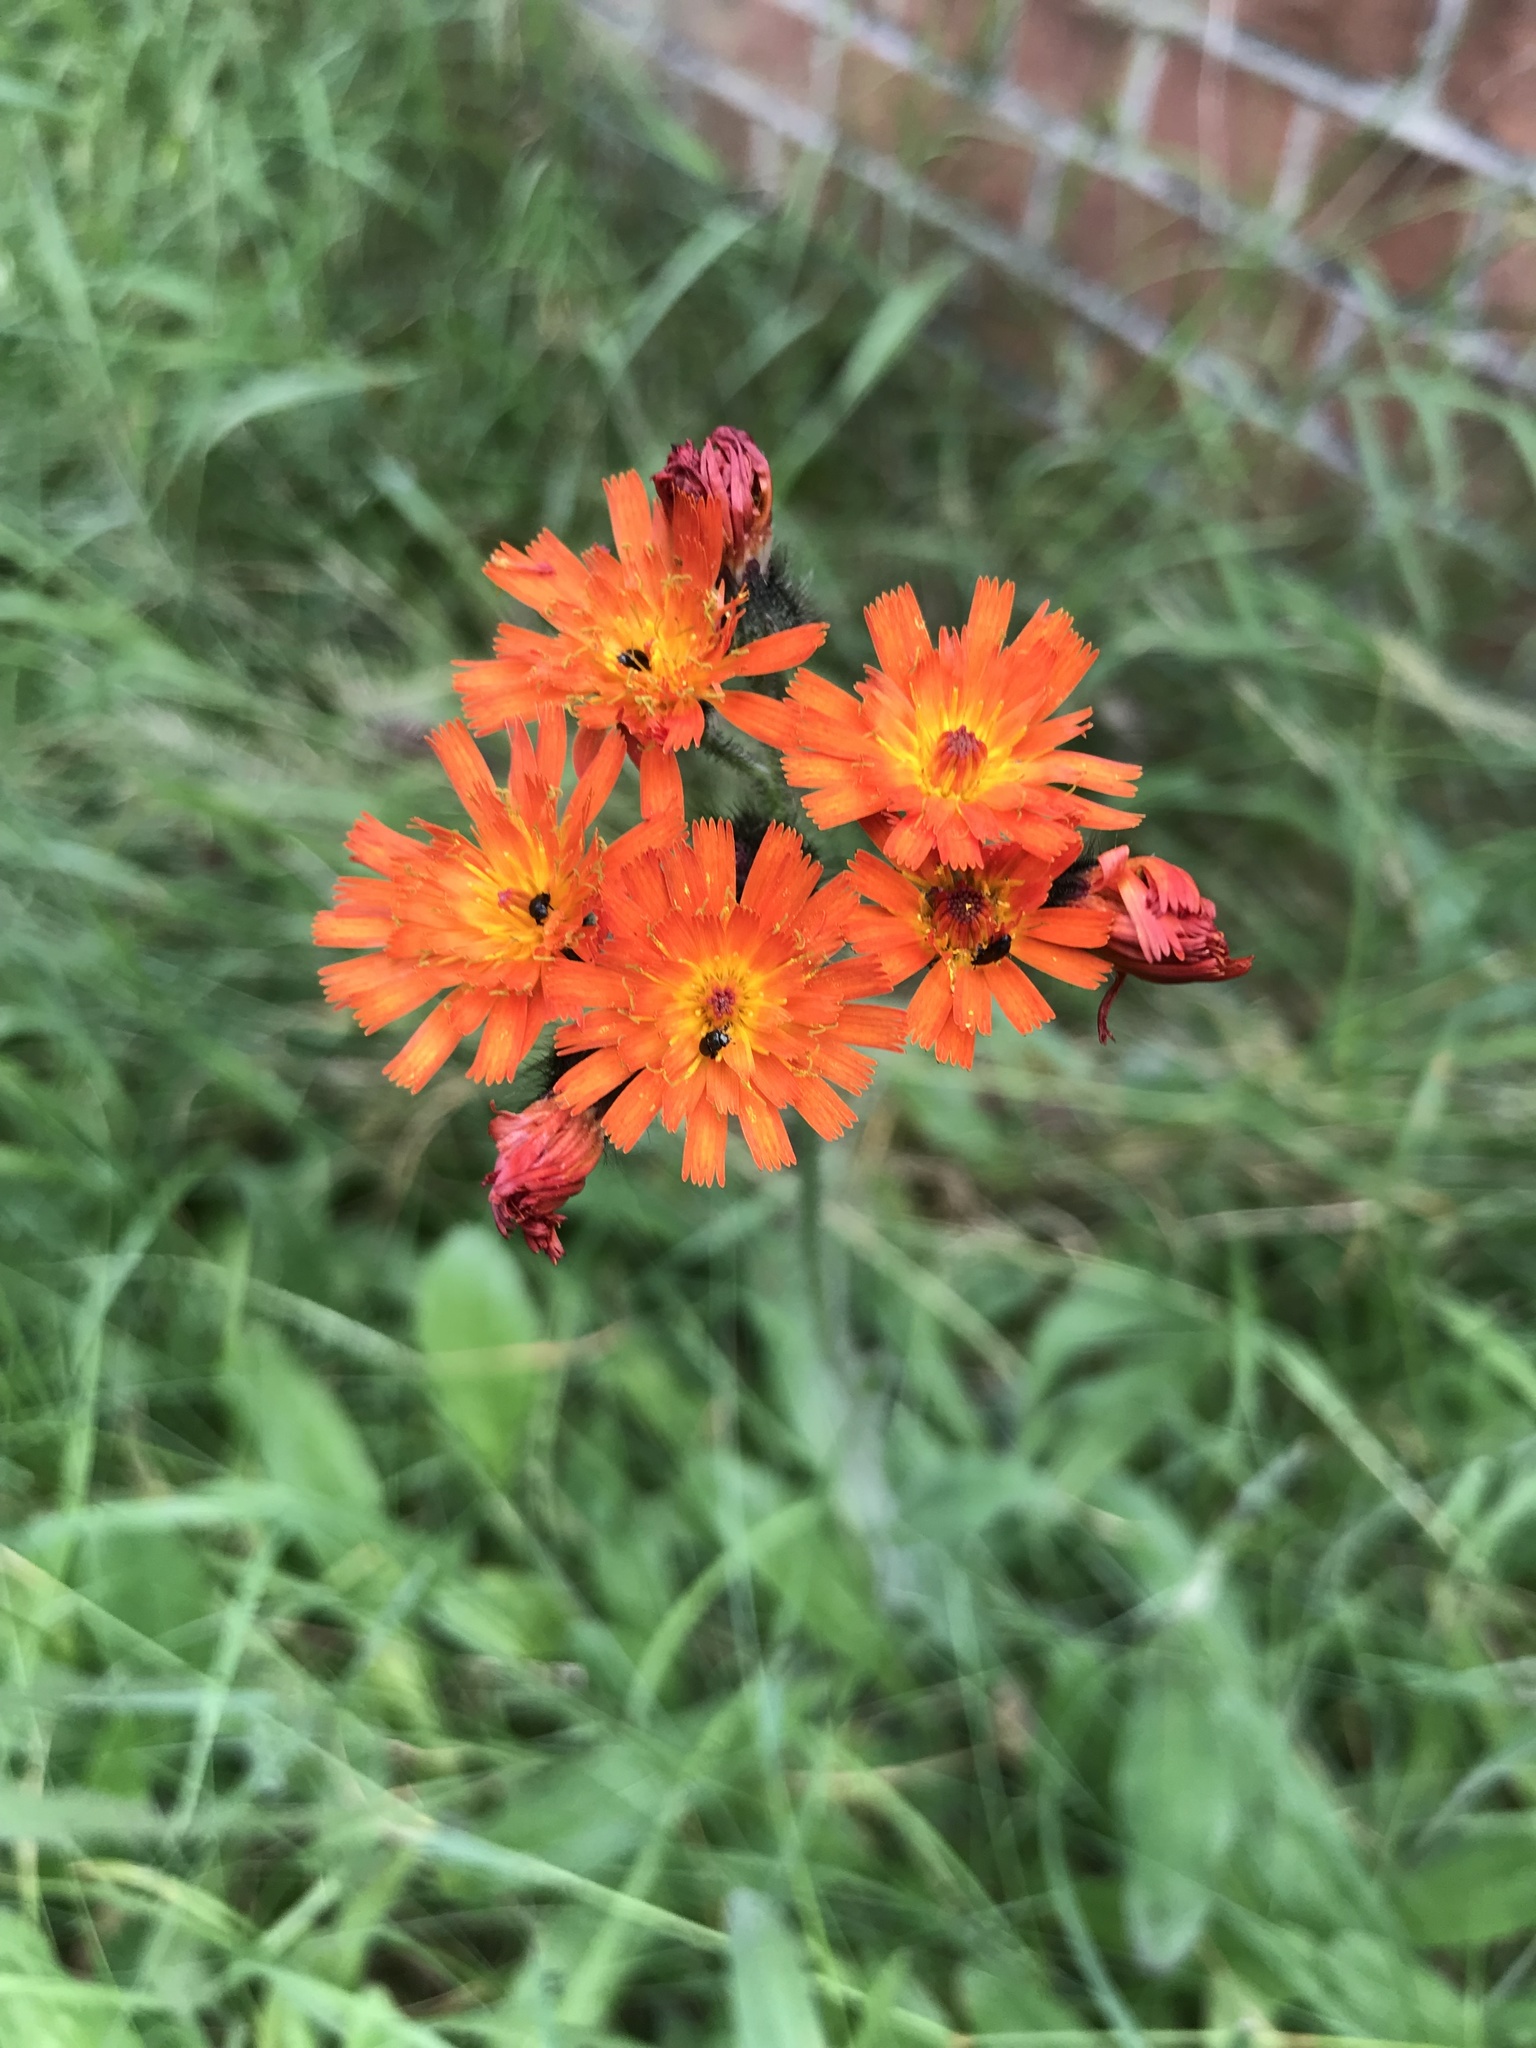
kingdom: Plantae
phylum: Tracheophyta
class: Magnoliopsida
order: Asterales
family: Asteraceae
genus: Pilosella
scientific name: Pilosella aurantiaca
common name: Fox-and-cubs
